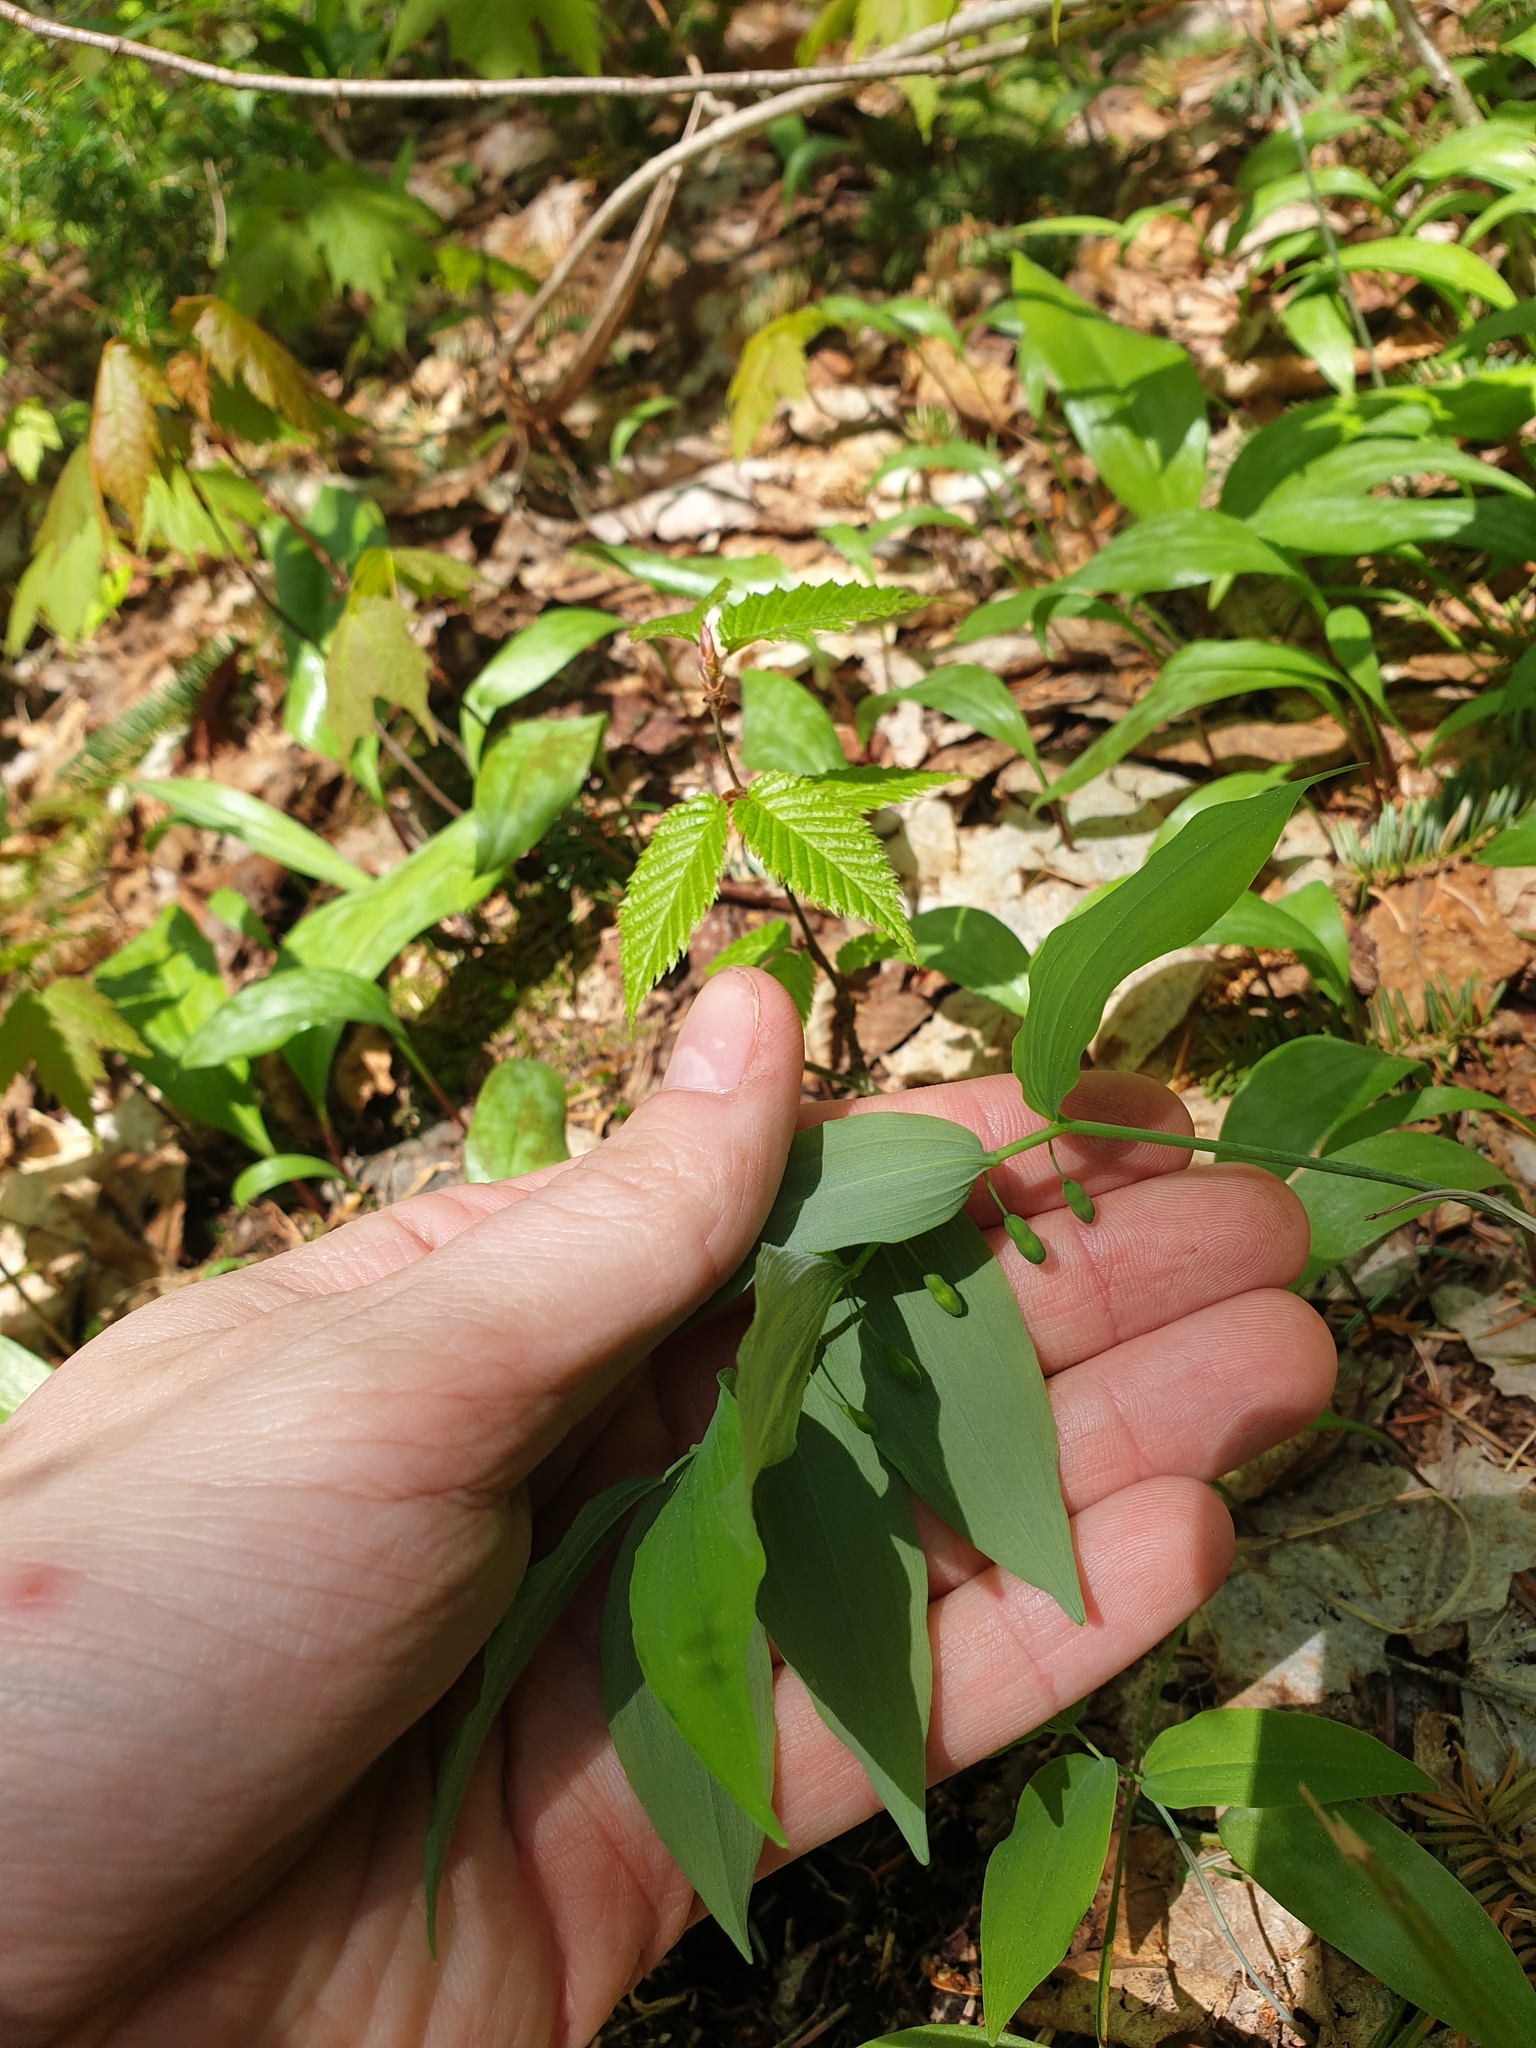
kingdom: Plantae
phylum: Tracheophyta
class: Liliopsida
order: Asparagales
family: Asparagaceae
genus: Polygonatum
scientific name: Polygonatum pubescens
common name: Downy solomon's seal
